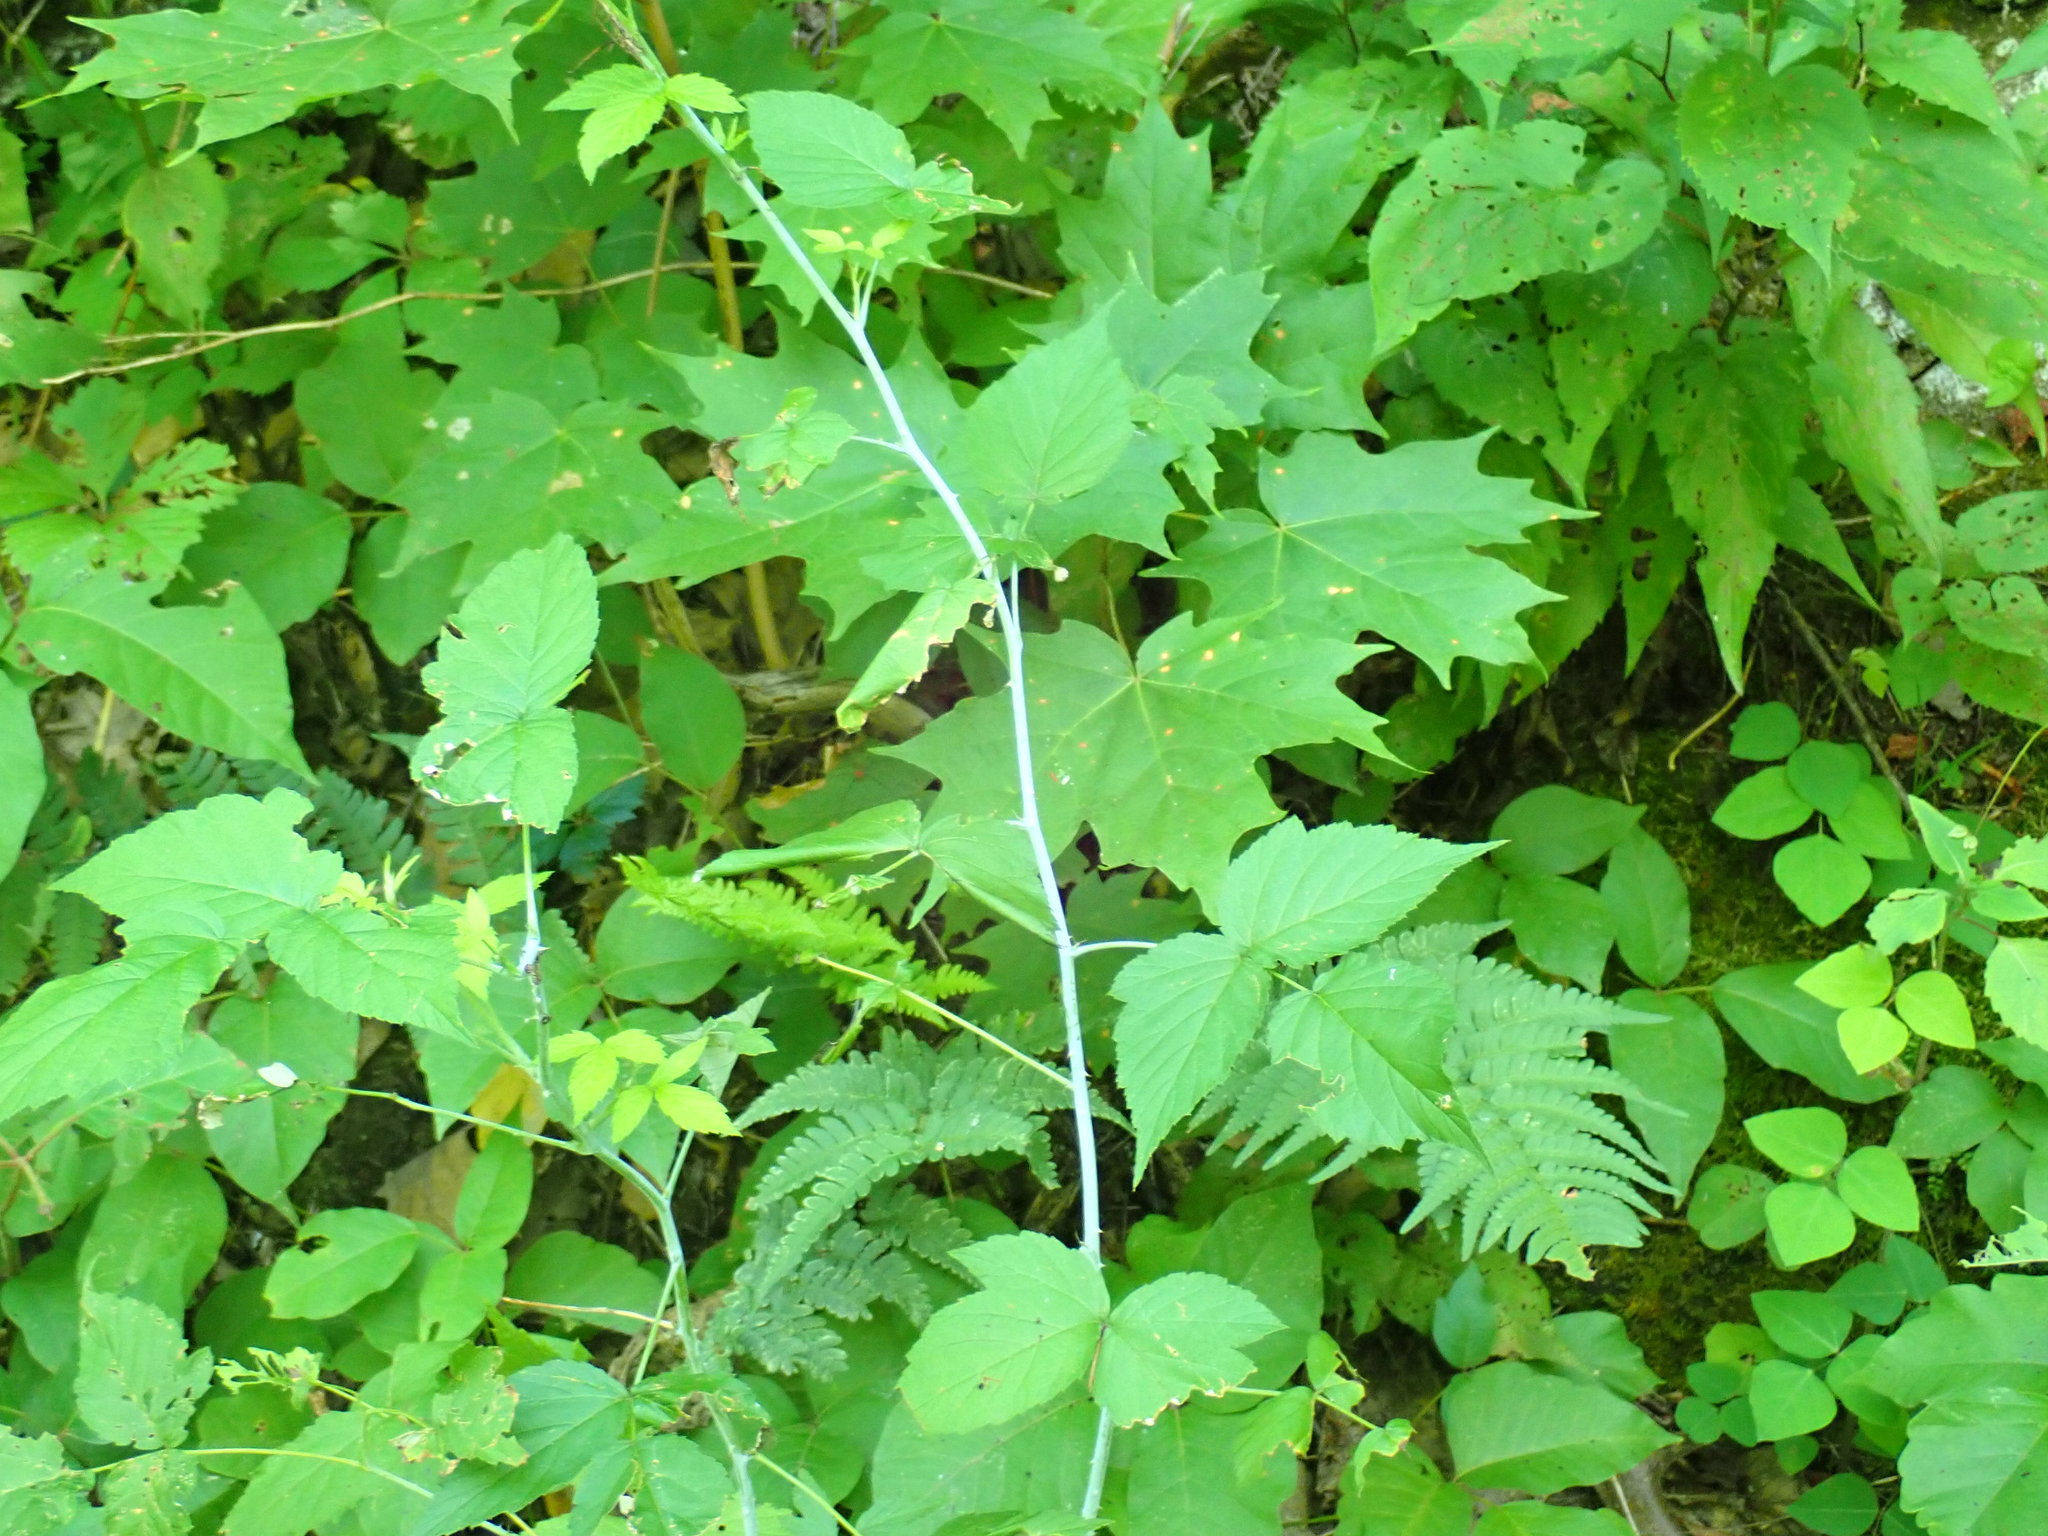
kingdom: Plantae
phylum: Tracheophyta
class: Magnoliopsida
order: Rosales
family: Rosaceae
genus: Rubus
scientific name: Rubus occidentalis
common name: Black raspberry
